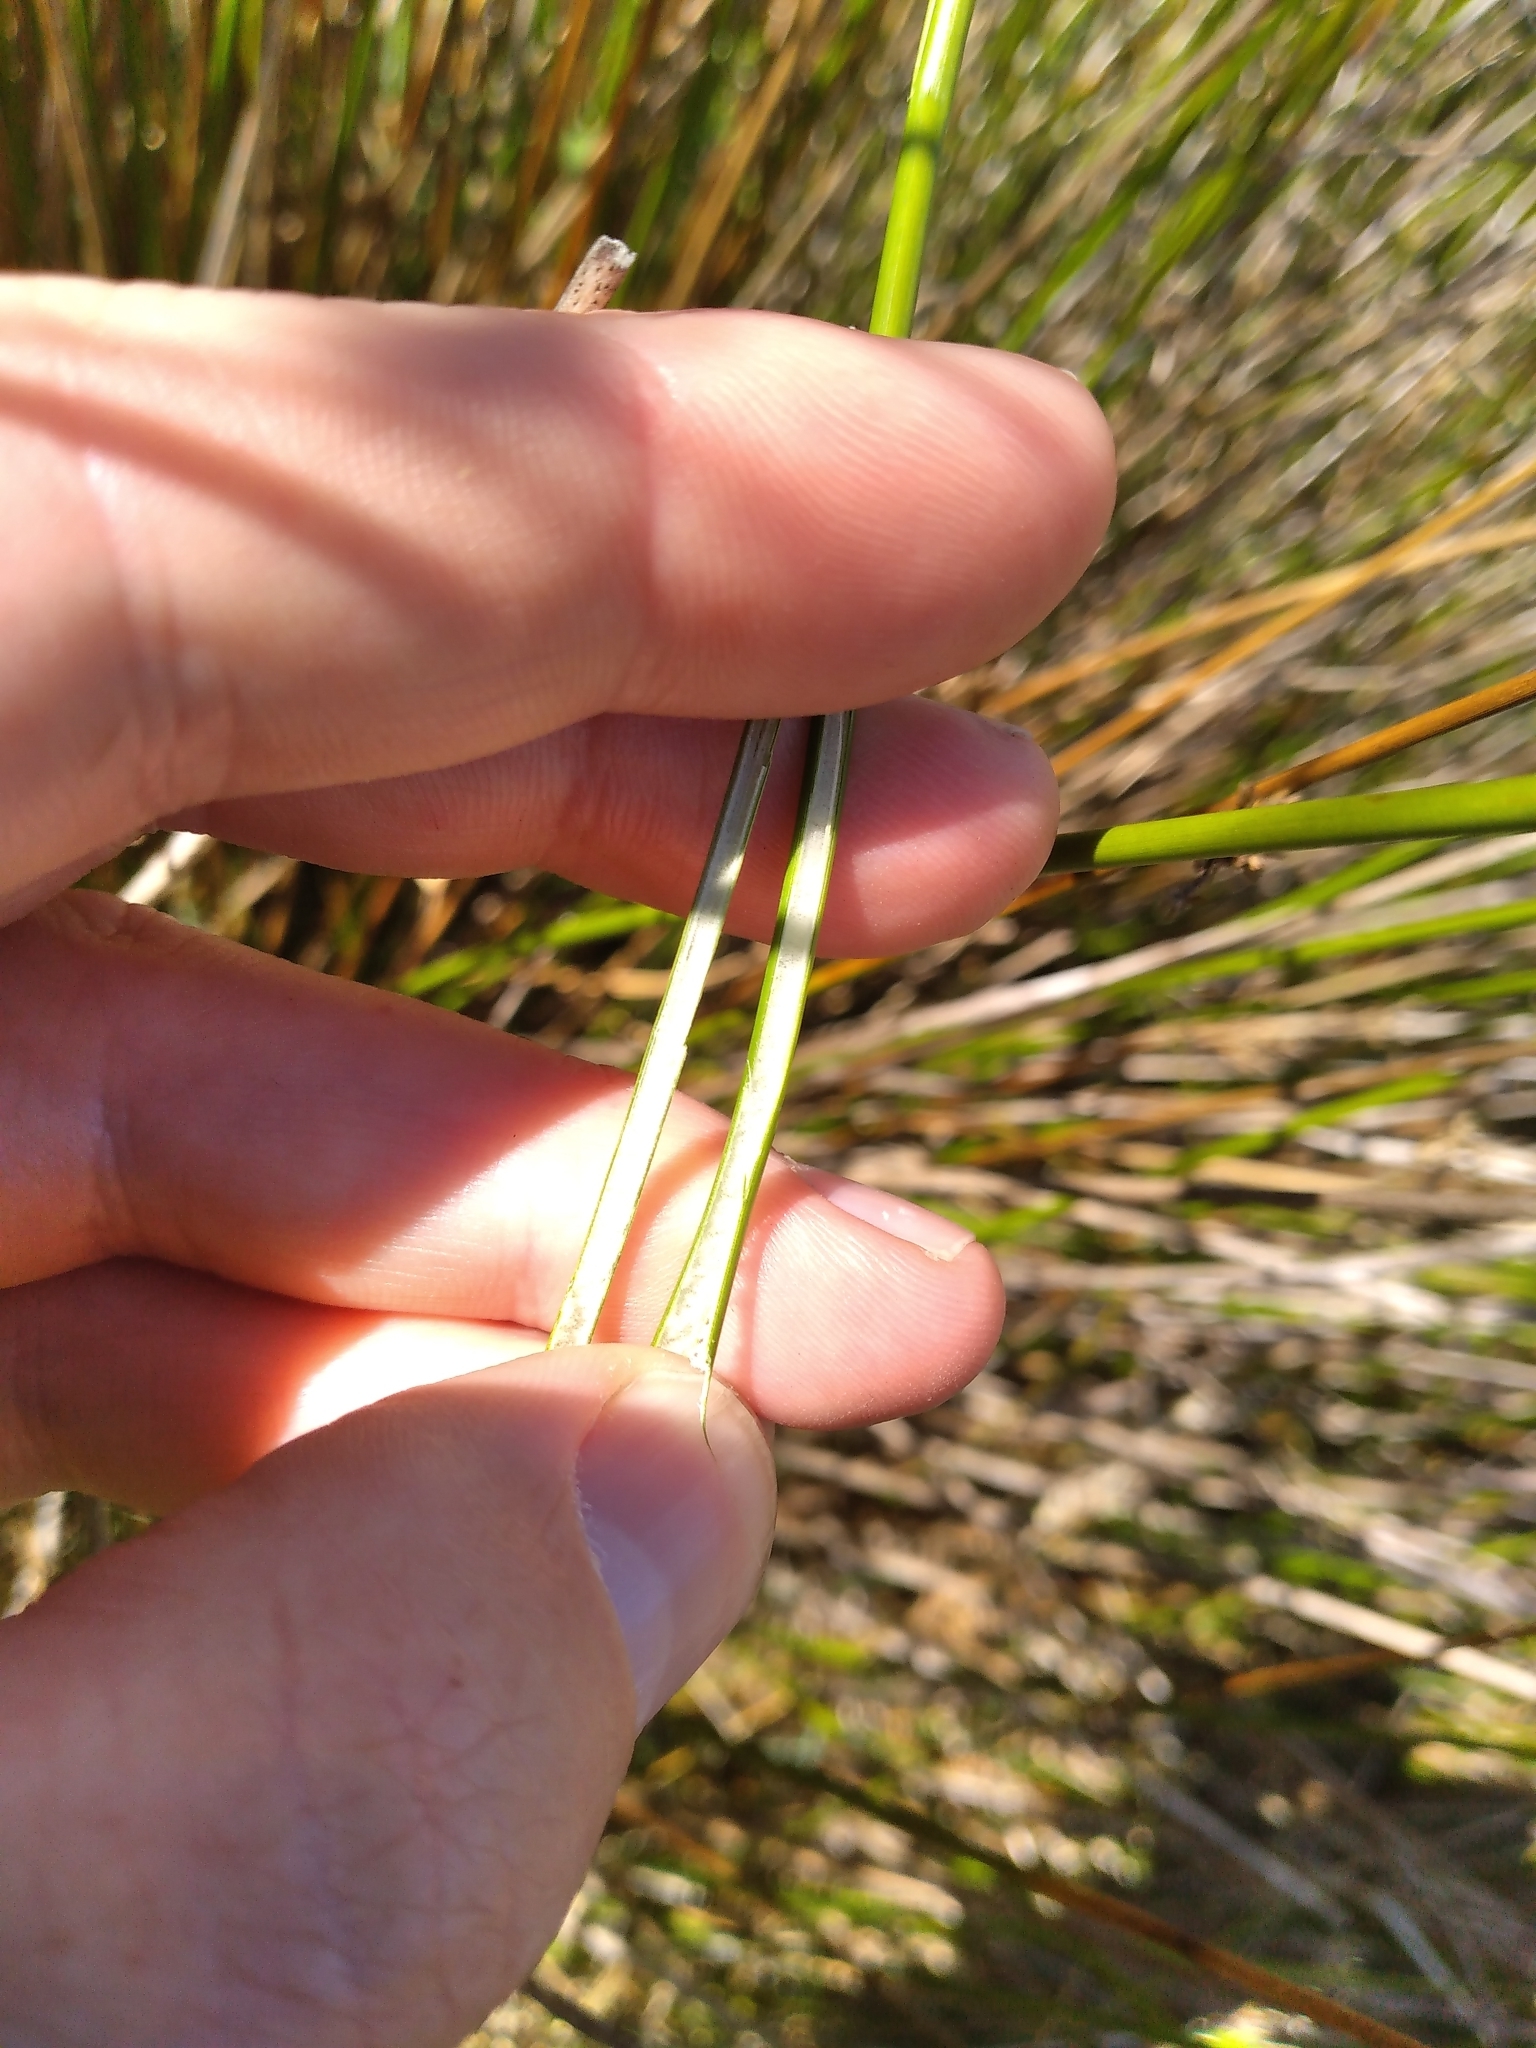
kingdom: Plantae
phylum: Tracheophyta
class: Liliopsida
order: Poales
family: Juncaceae
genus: Juncus
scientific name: Juncus effusus
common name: Soft rush
